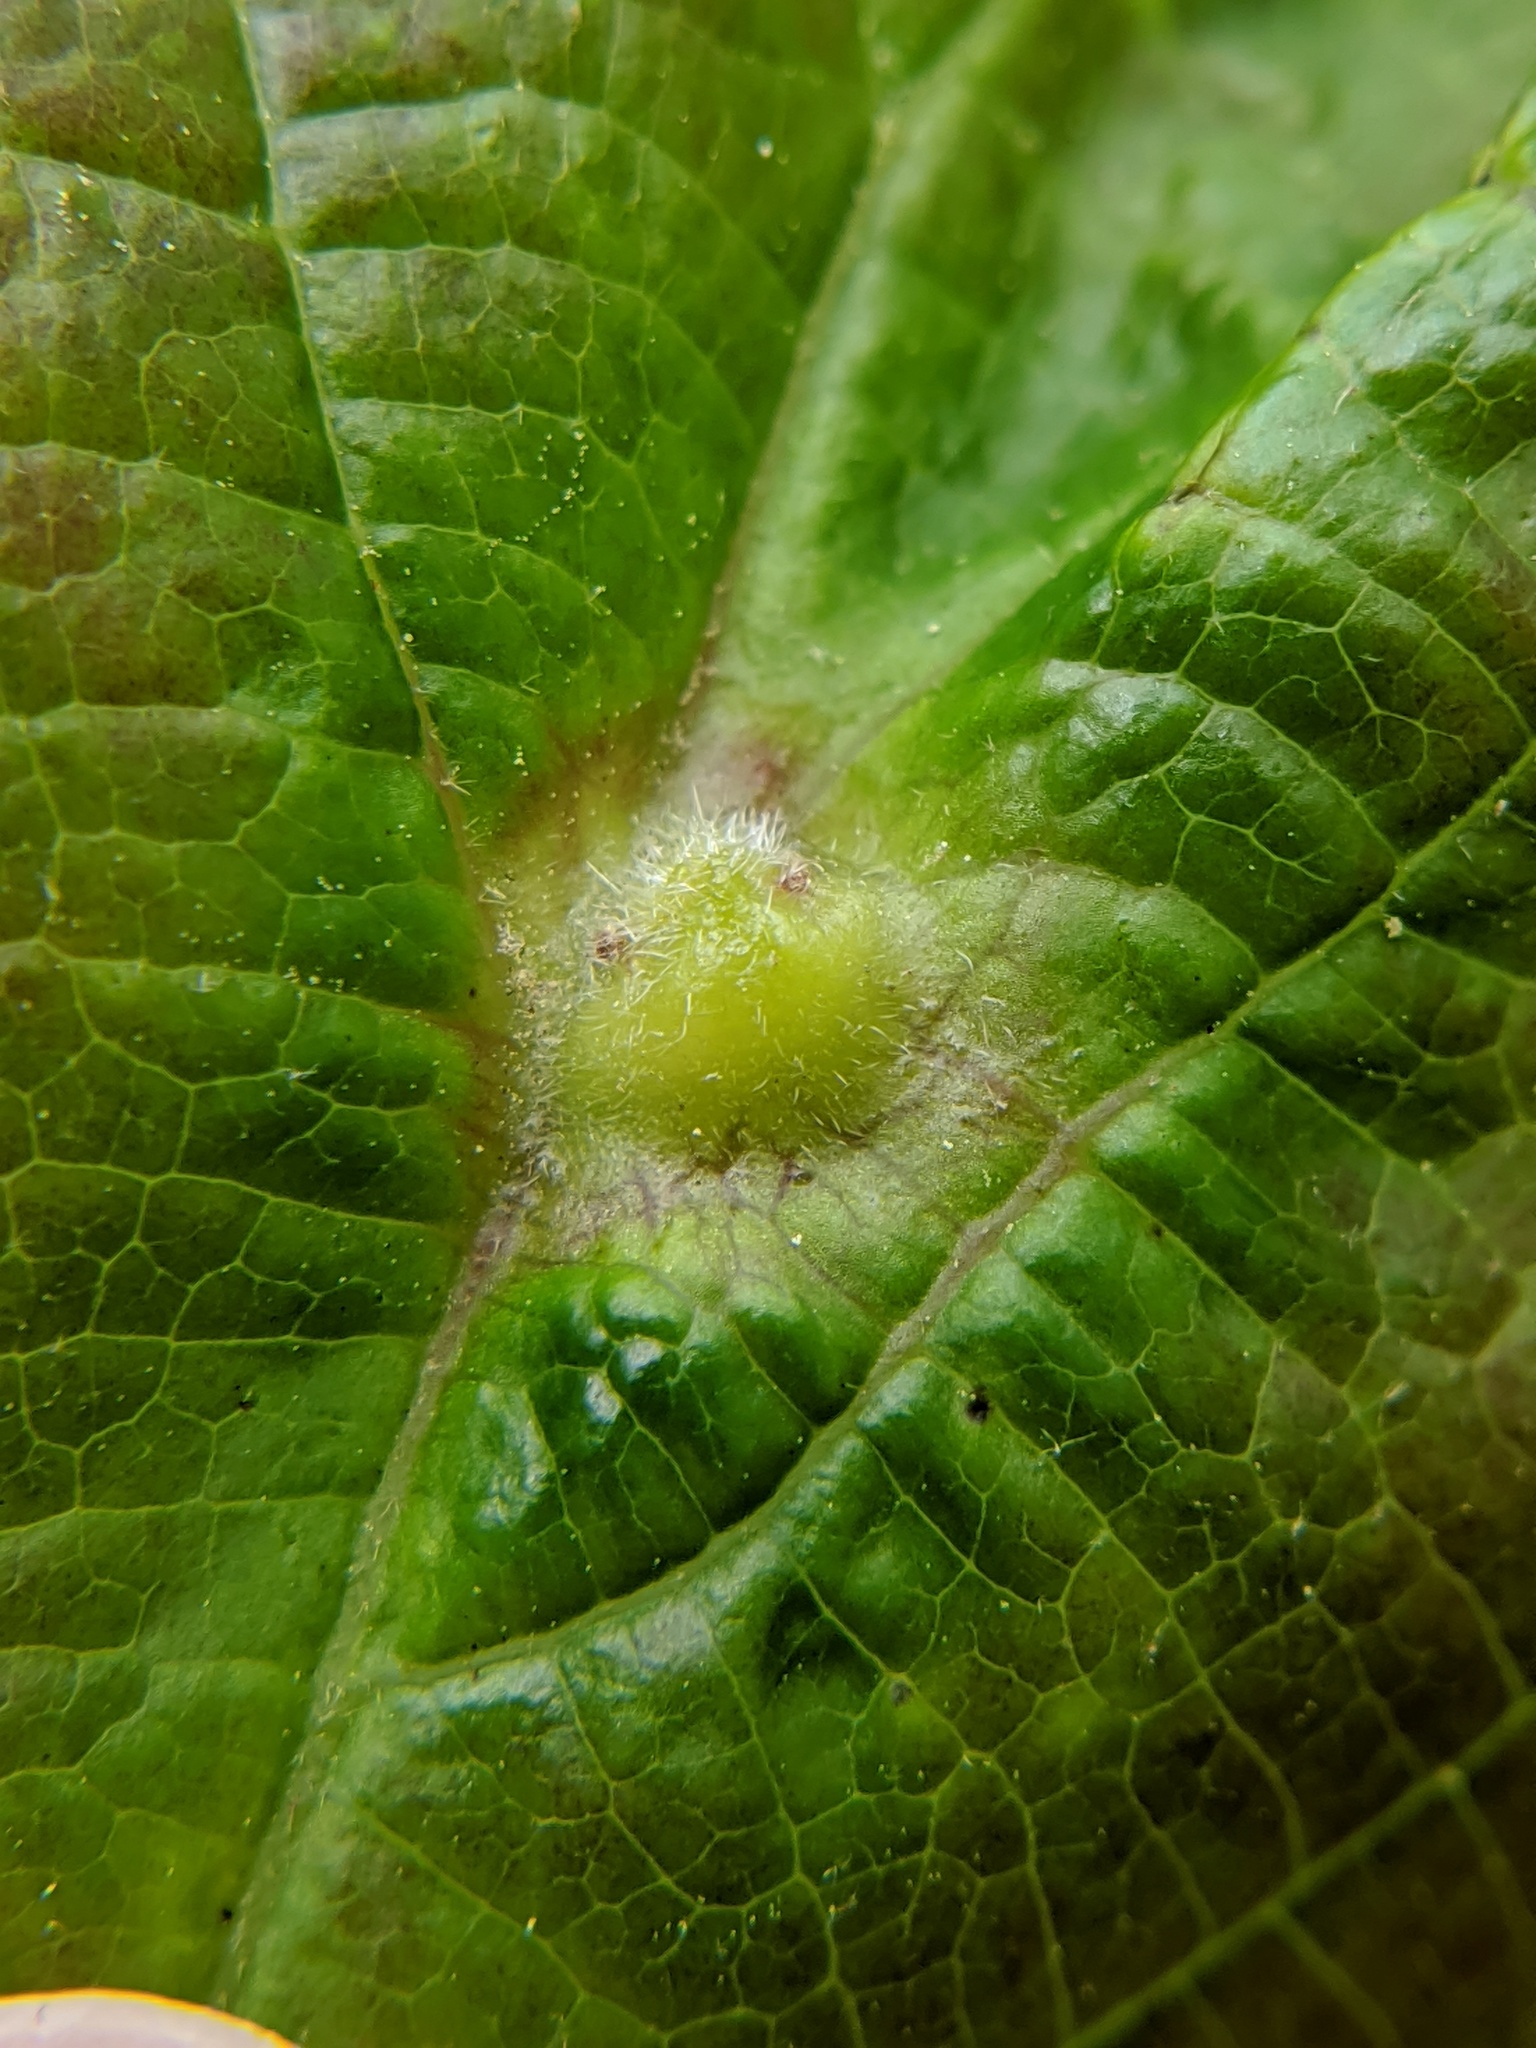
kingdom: Animalia
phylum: Arthropoda
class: Insecta
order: Hemiptera
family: Aphididae
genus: Hormaphis
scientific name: Hormaphis hamamelidis
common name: Witch-hazel cone gall aphid
